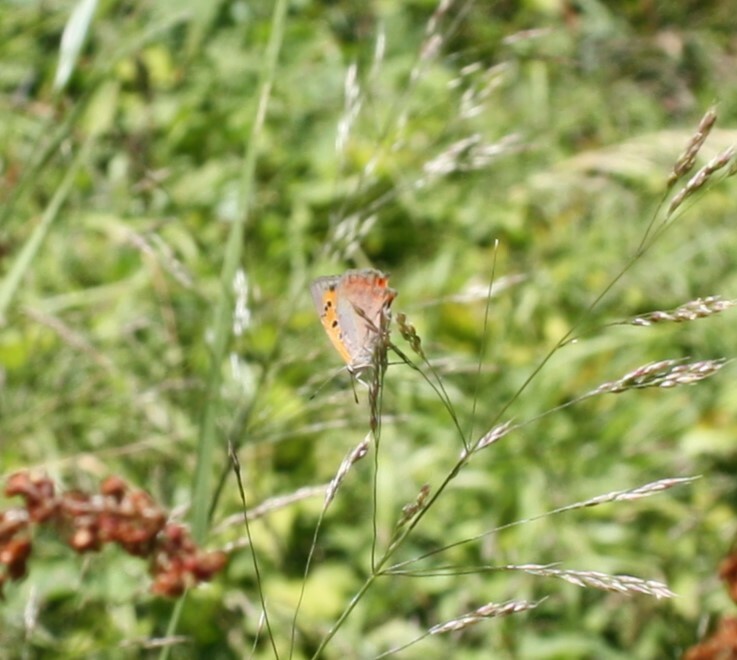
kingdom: Animalia
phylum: Arthropoda
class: Insecta
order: Lepidoptera
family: Lycaenidae
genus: Lycaena
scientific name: Lycaena phlaeas
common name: Small copper
